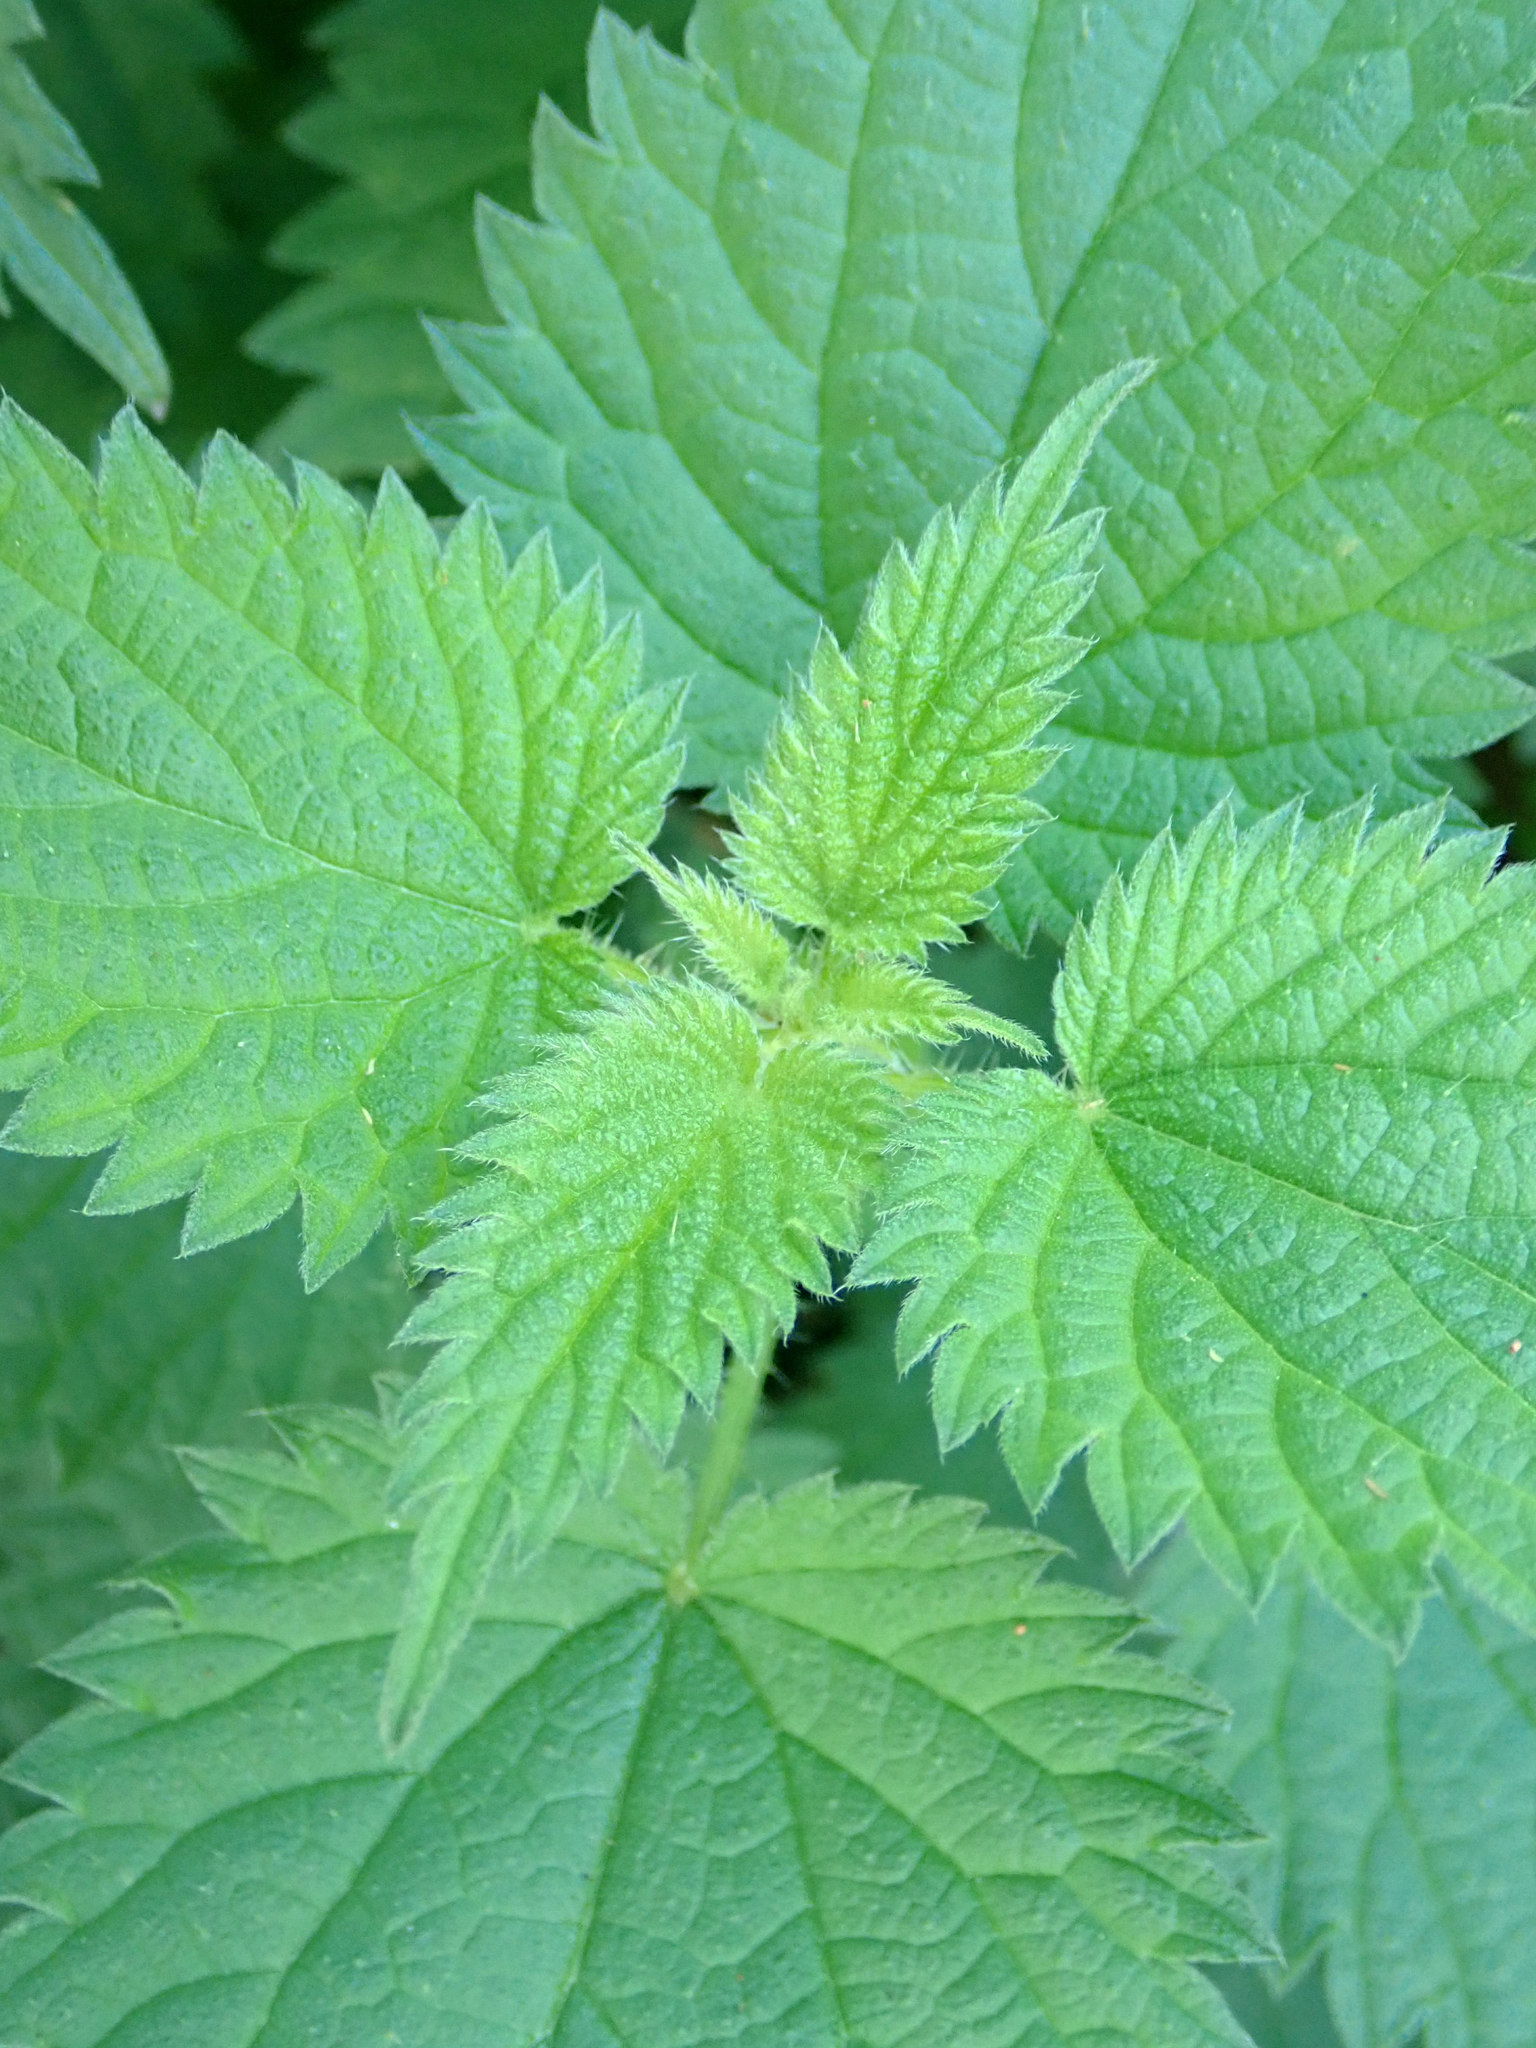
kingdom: Plantae
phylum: Tracheophyta
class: Magnoliopsida
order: Rosales
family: Urticaceae
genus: Urtica
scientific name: Urtica dioica
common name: Common nettle
